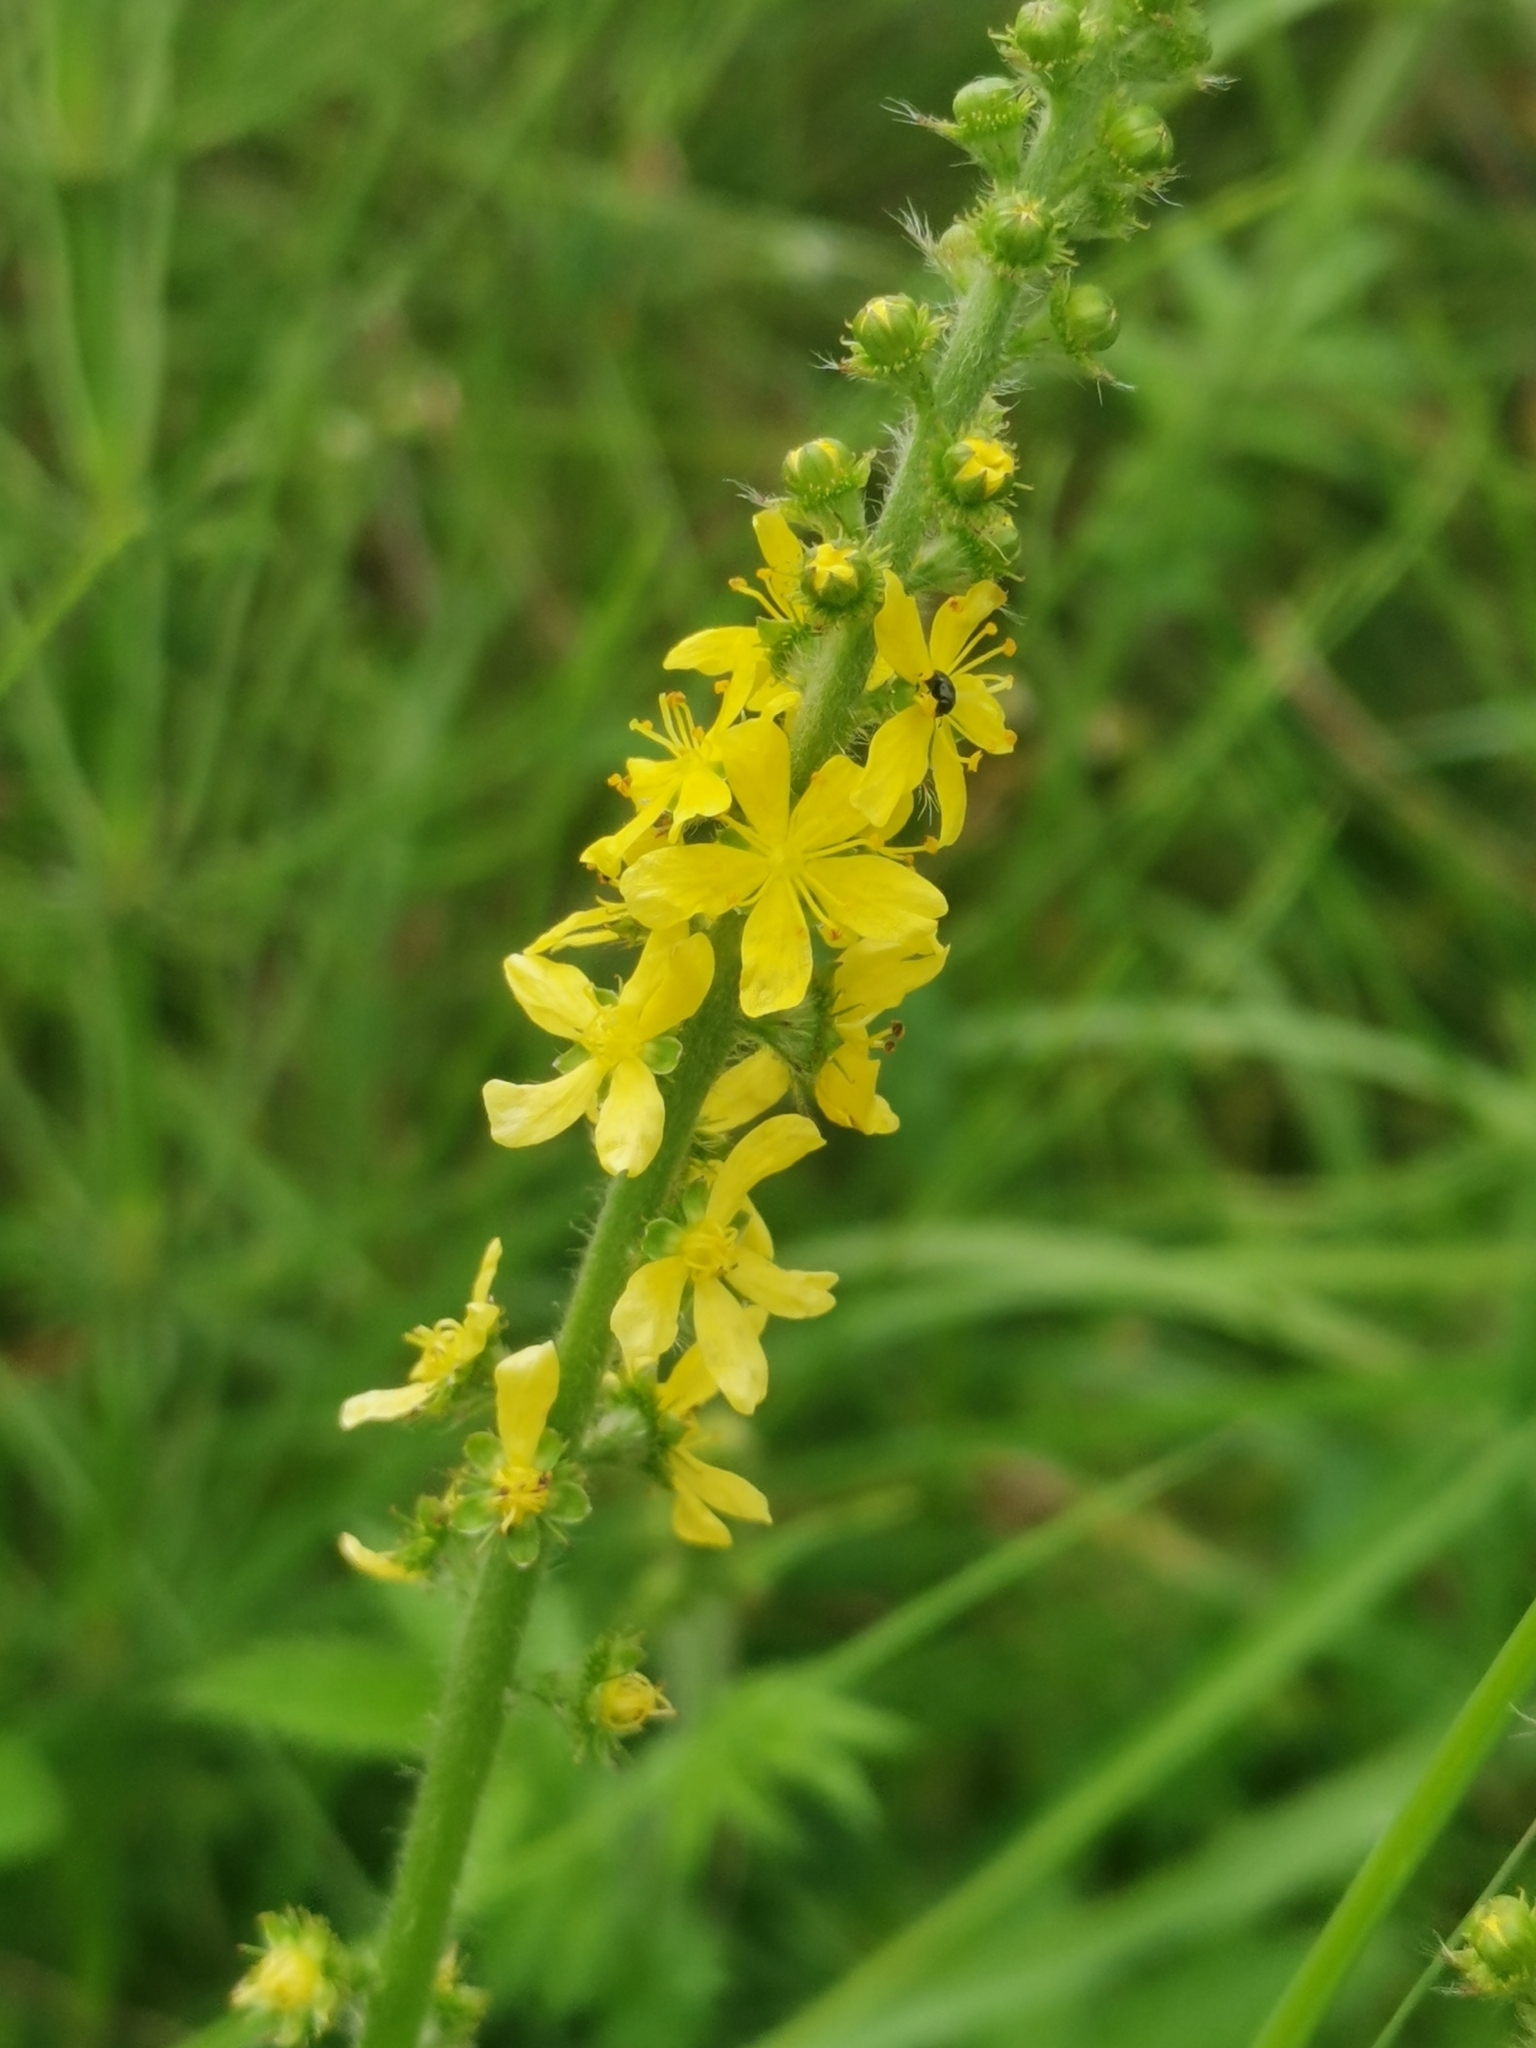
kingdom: Plantae
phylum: Tracheophyta
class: Magnoliopsida
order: Rosales
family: Rosaceae
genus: Agrimonia
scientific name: Agrimonia eupatoria
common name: Agrimony
